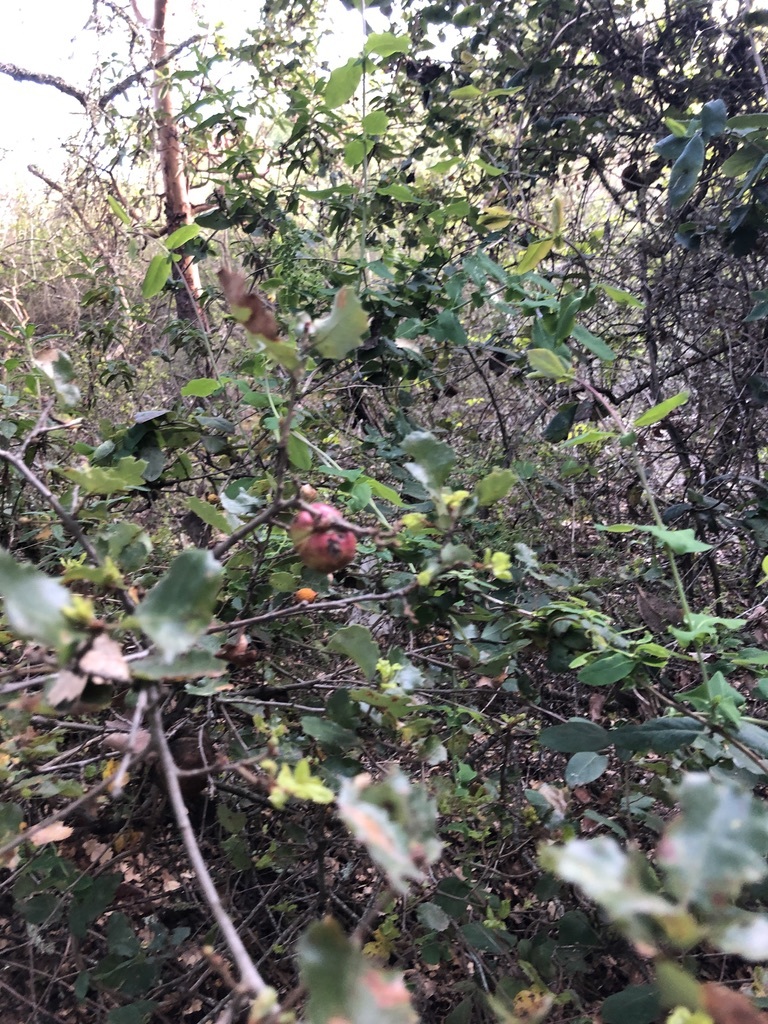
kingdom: Animalia
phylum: Arthropoda
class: Insecta
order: Hymenoptera
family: Cynipidae
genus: Andricus
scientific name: Andricus quercuscalifornicus
